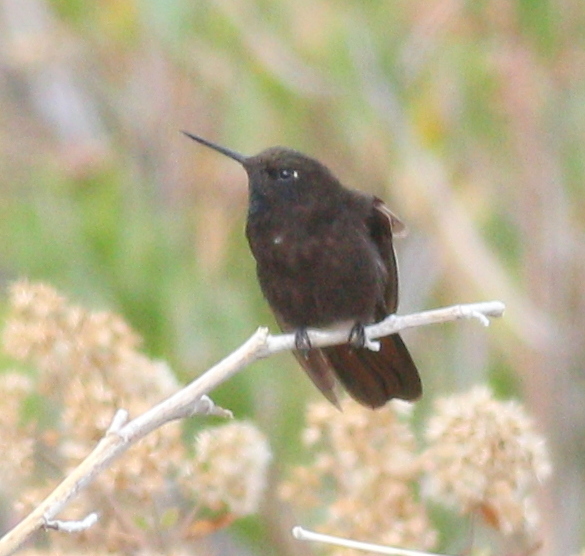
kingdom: Animalia
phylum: Chordata
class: Aves
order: Apodiformes
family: Trochilidae
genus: Metallura
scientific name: Metallura phoebe
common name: Black metaltail
